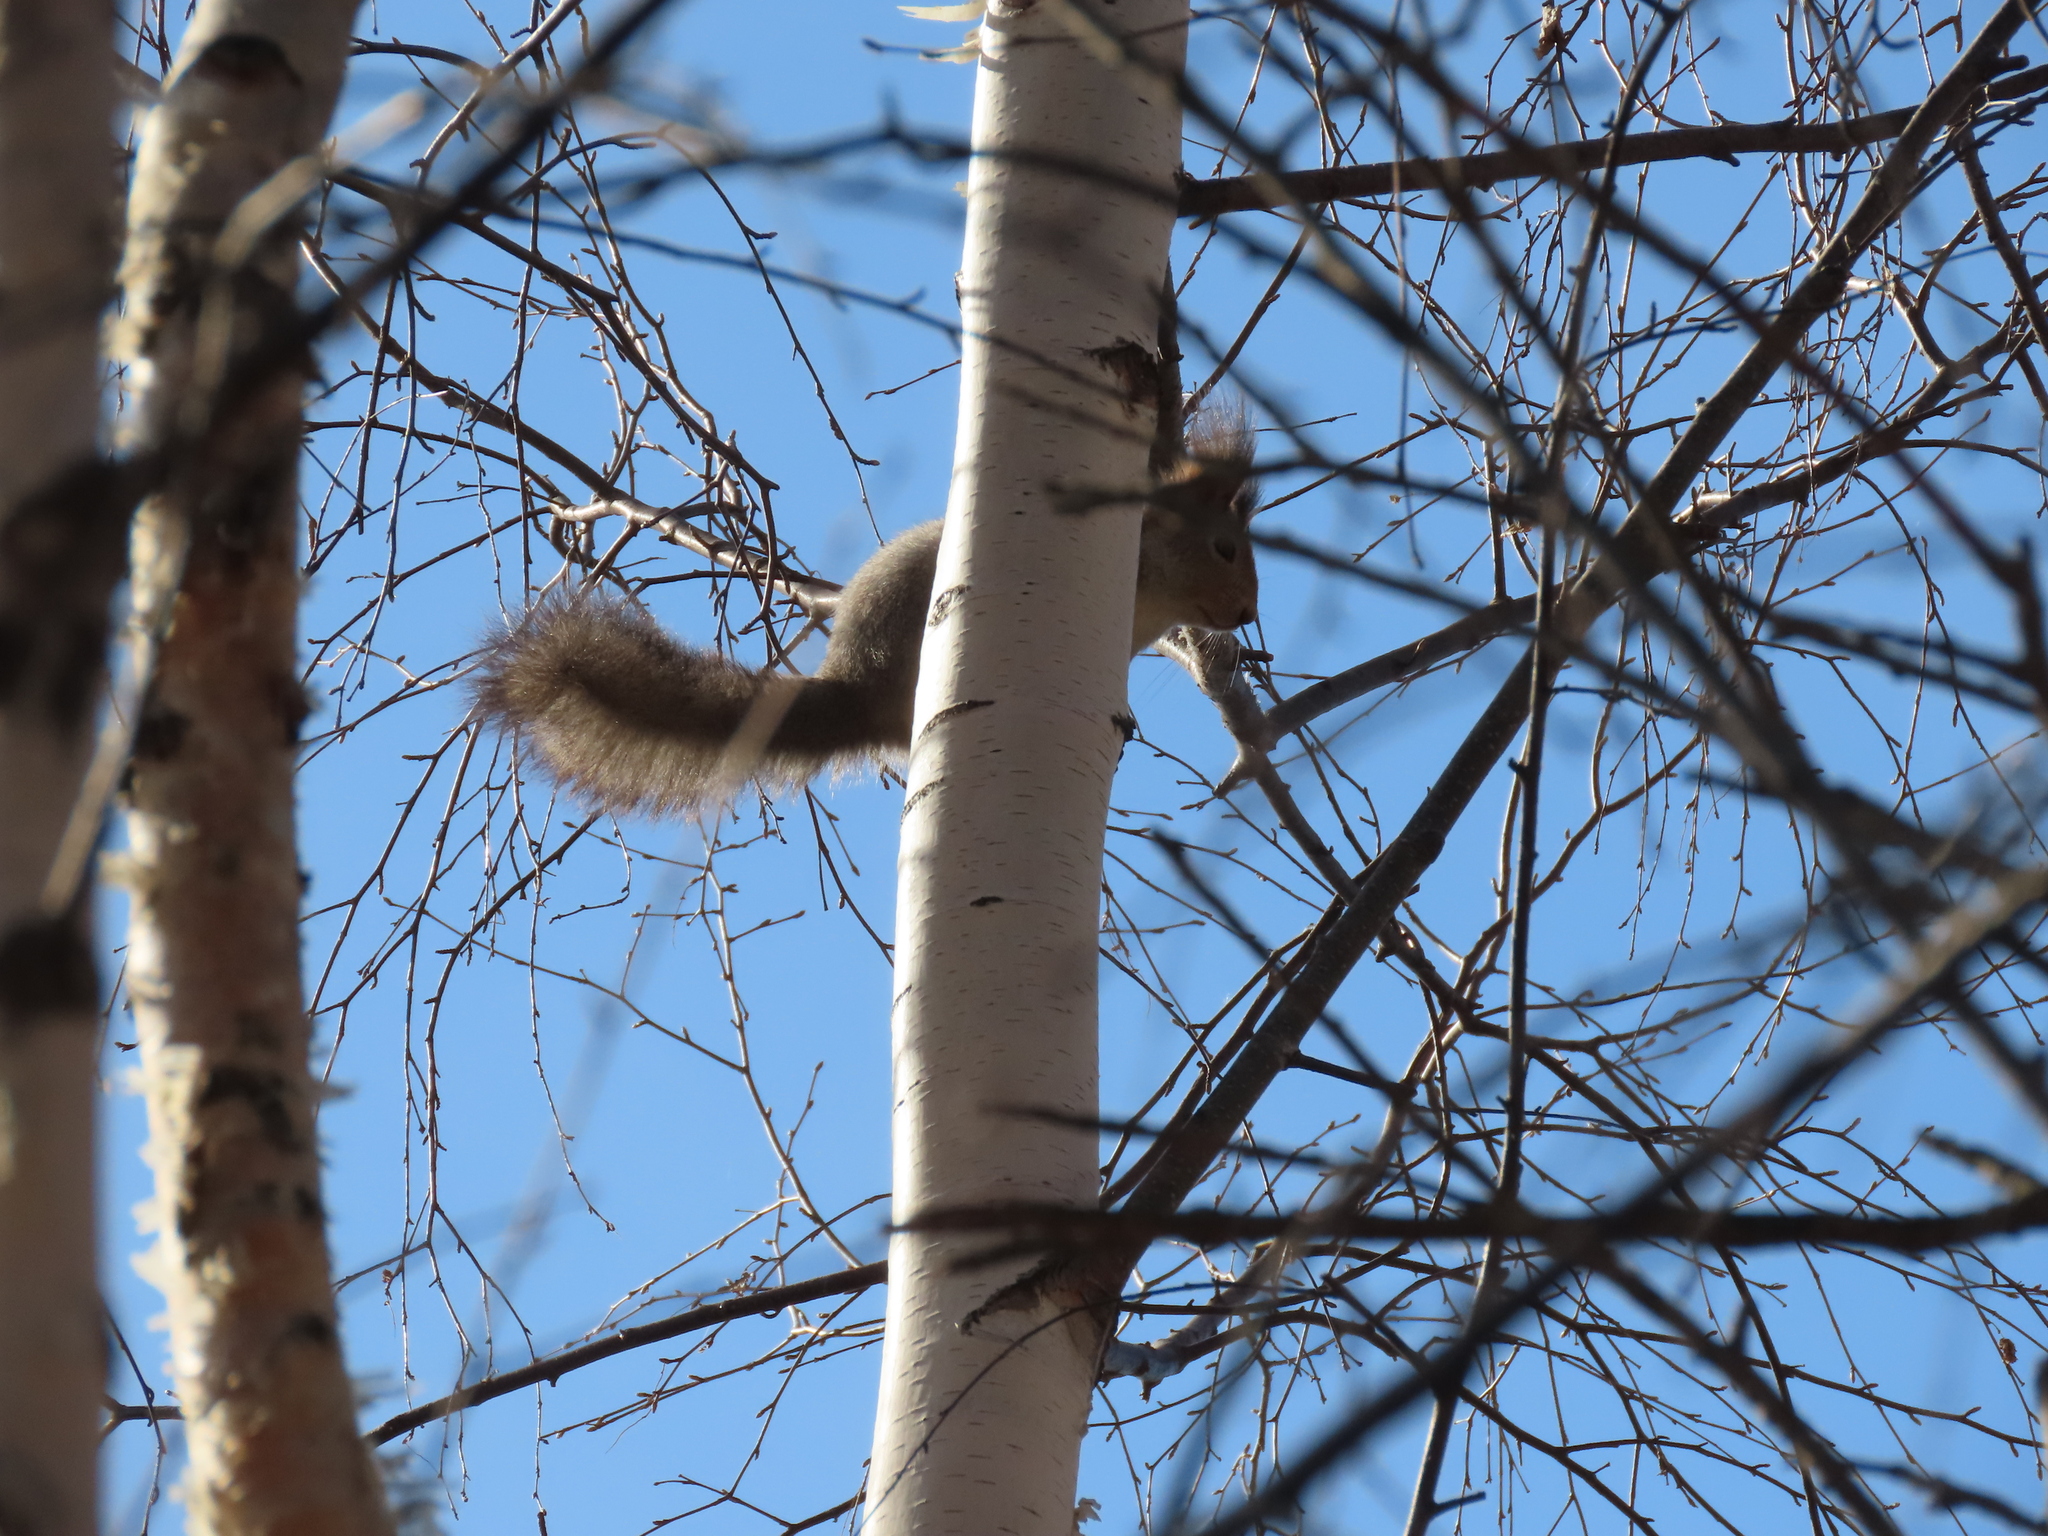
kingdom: Animalia
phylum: Chordata
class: Mammalia
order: Rodentia
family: Sciuridae
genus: Sciurus
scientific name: Sciurus vulgaris
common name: Eurasian red squirrel
